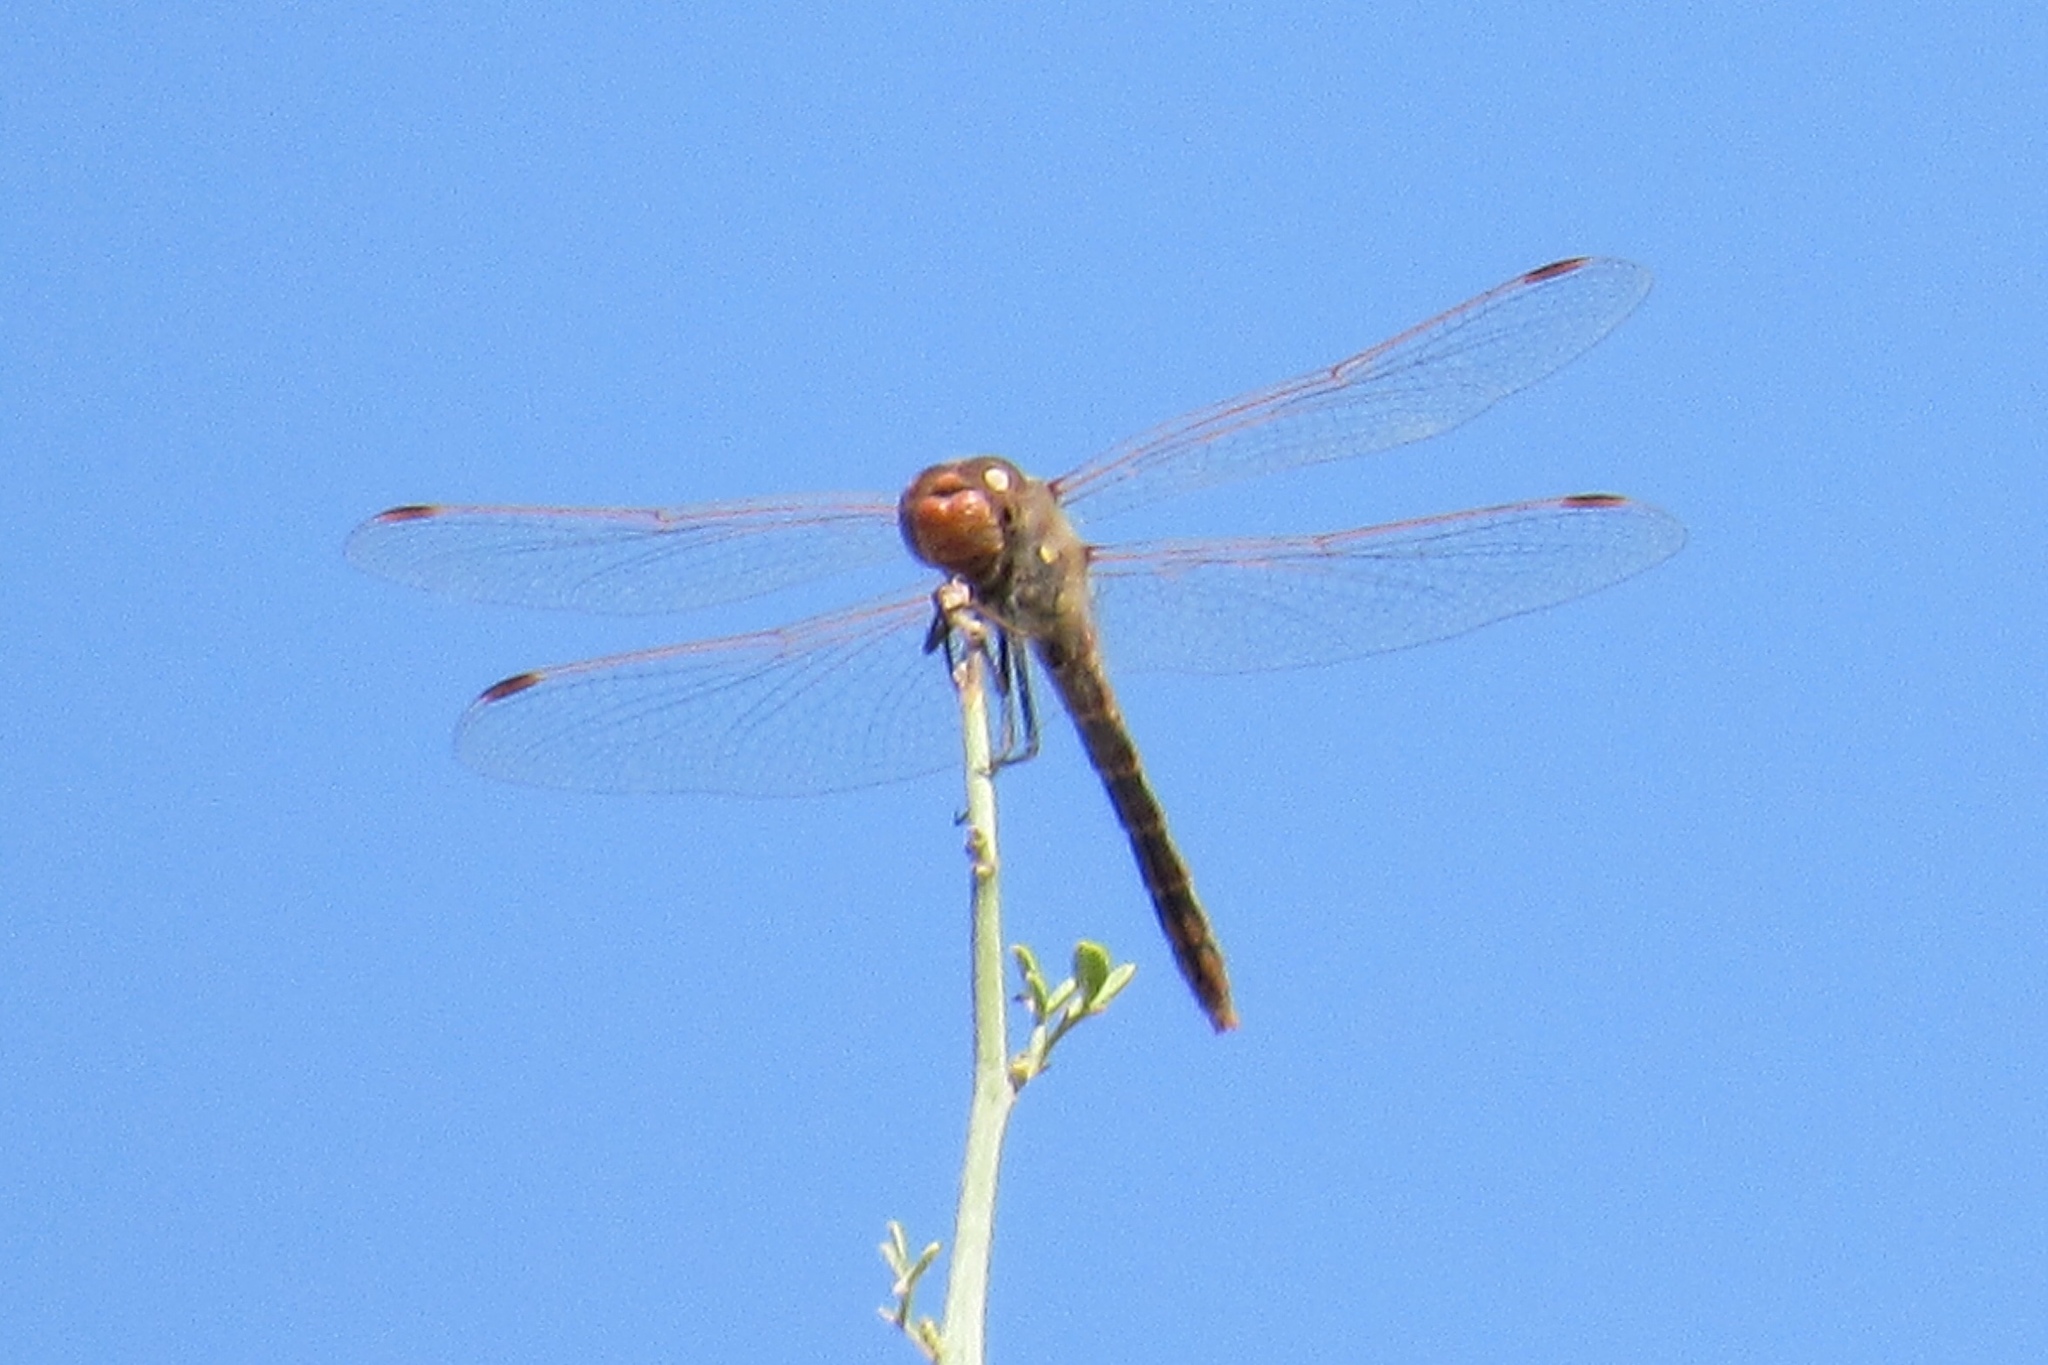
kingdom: Animalia
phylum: Arthropoda
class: Insecta
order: Odonata
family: Libellulidae
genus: Sympetrum
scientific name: Sympetrum corruptum
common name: Variegated meadowhawk
